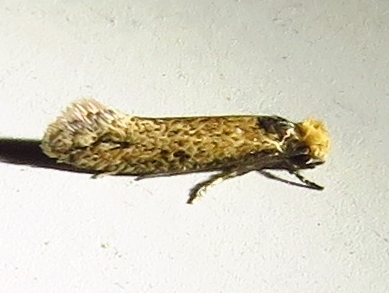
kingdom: Animalia
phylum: Arthropoda
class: Insecta
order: Lepidoptera
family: Meessiidae
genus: Homostinea
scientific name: Homostinea curviliniella
